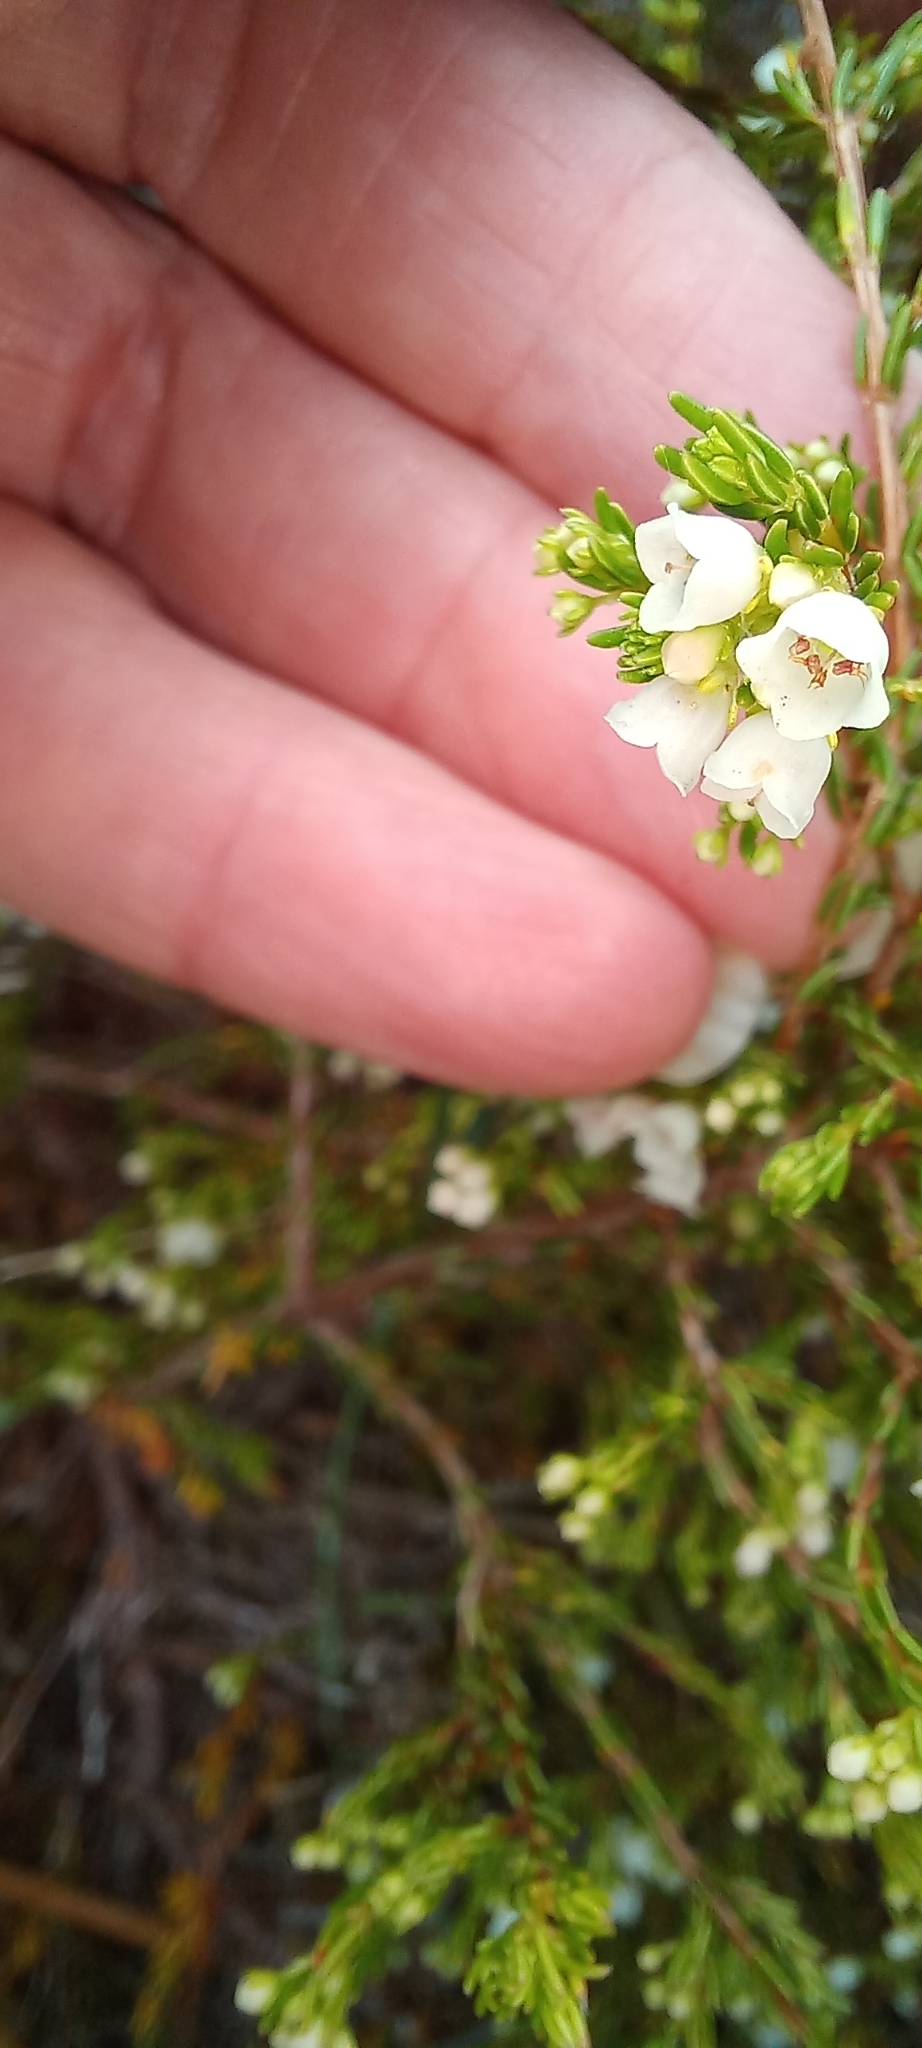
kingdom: Plantae
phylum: Tracheophyta
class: Magnoliopsida
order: Ericales
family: Ericaceae
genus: Erica
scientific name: Erica subdivaricata
